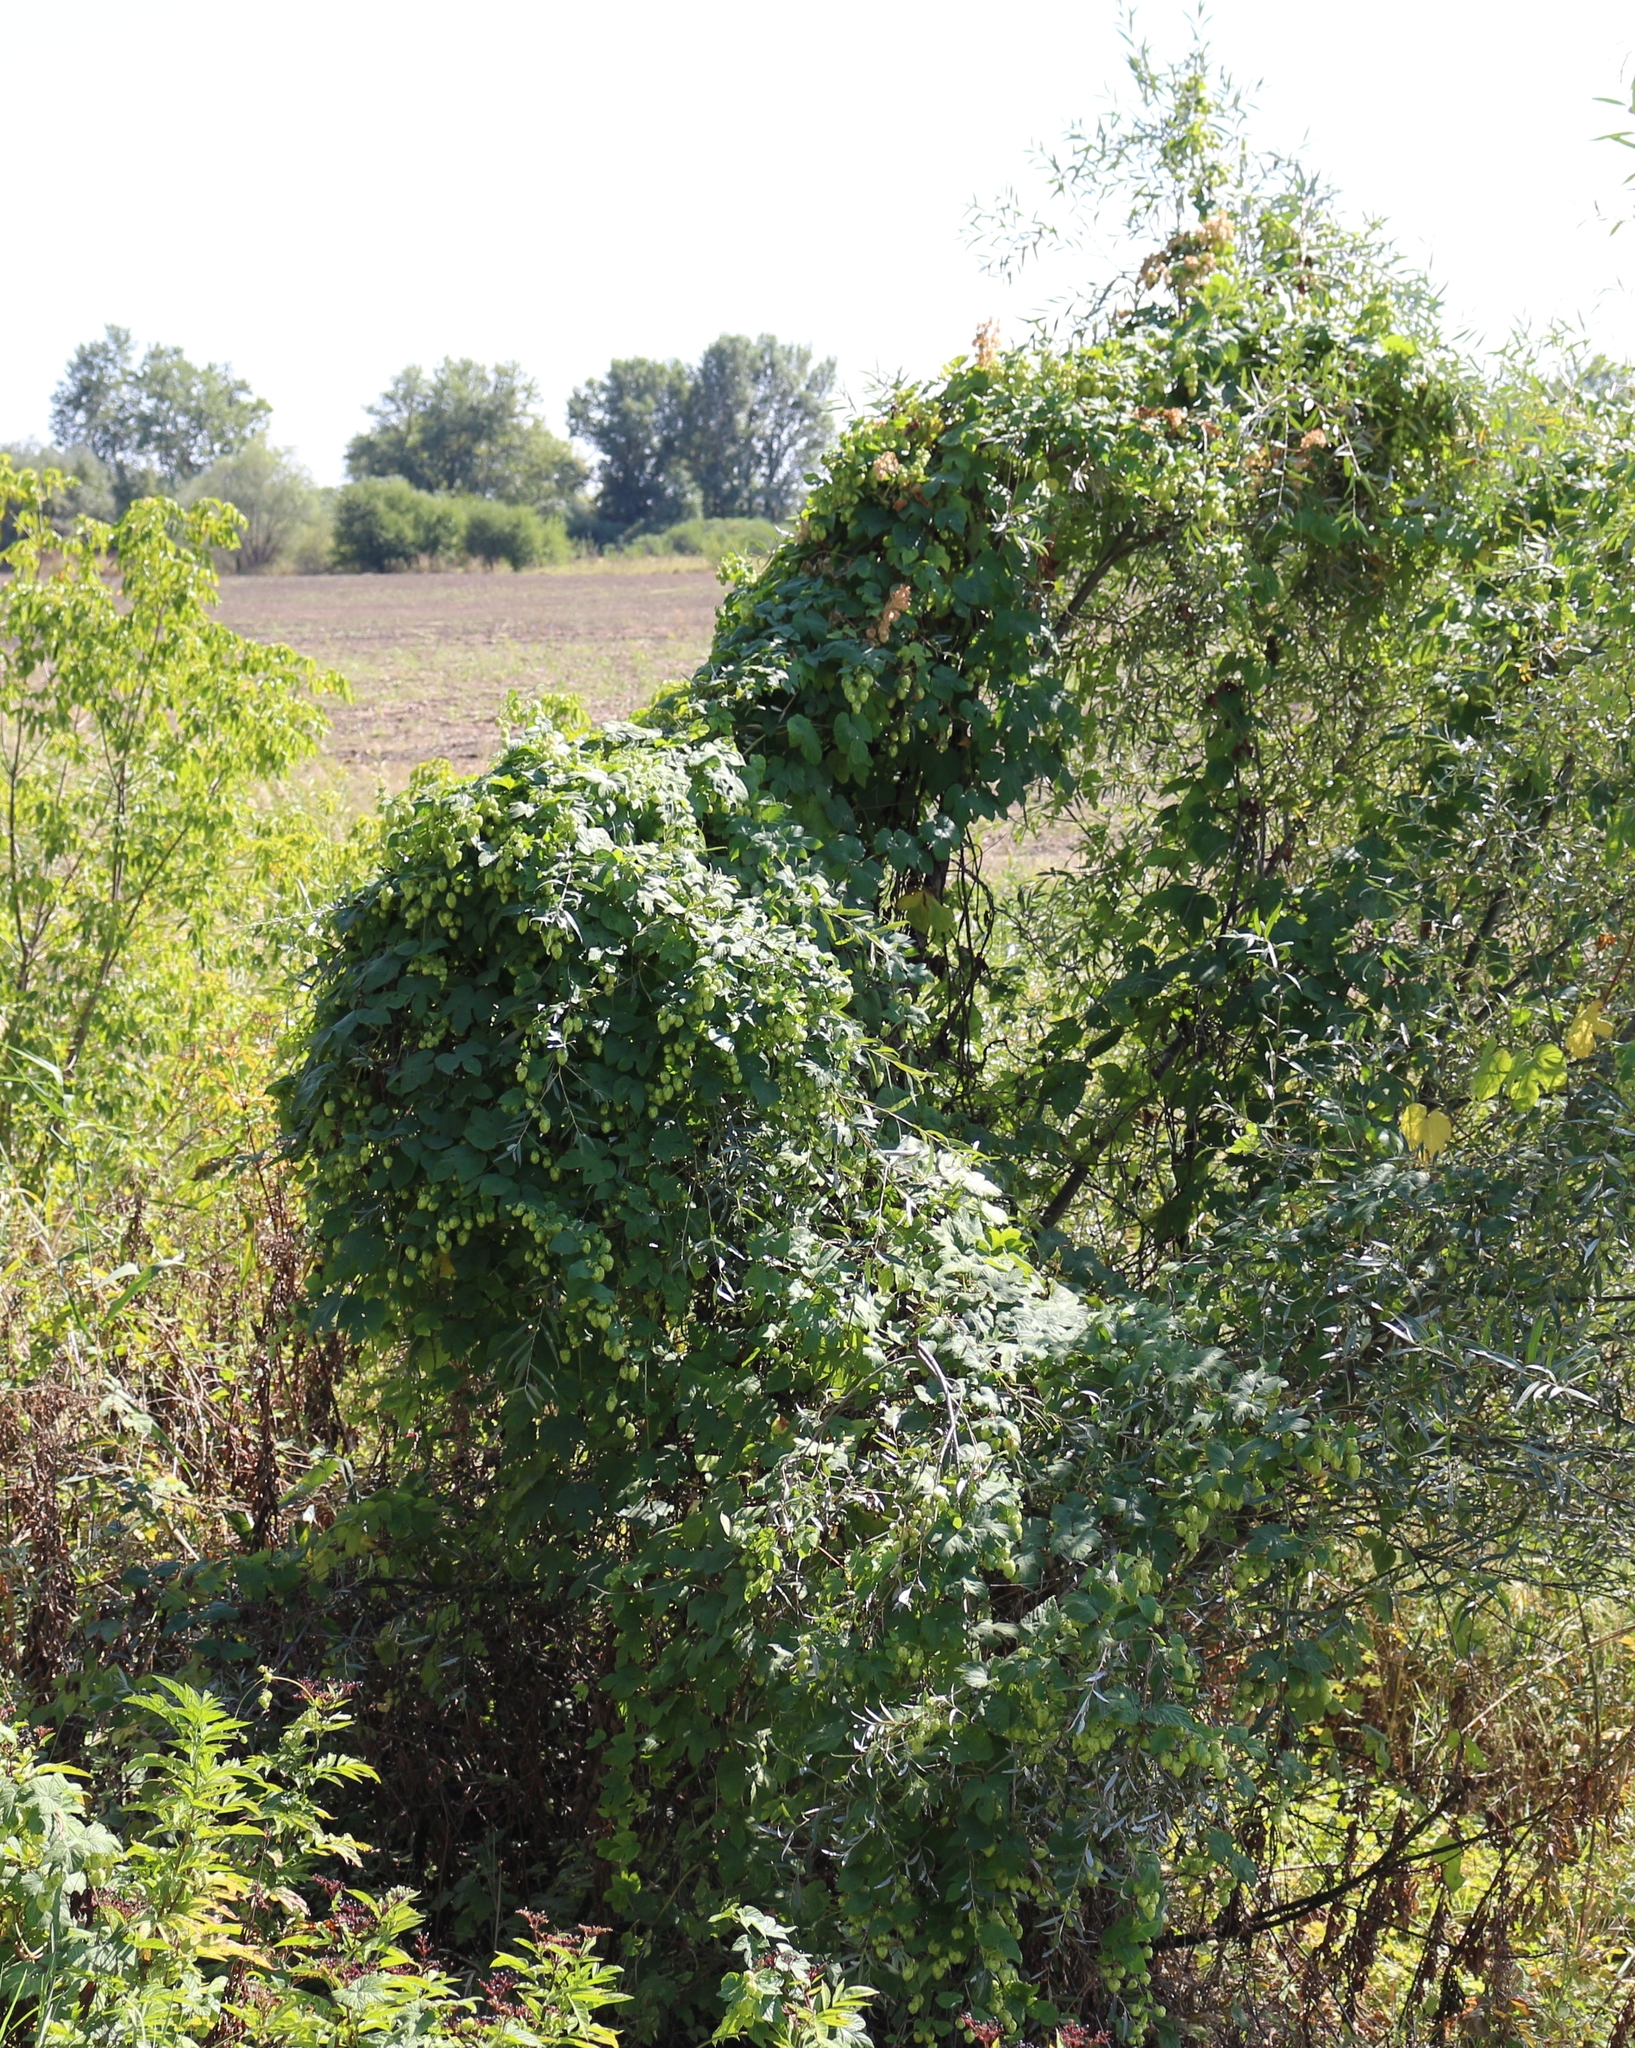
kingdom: Plantae
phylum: Tracheophyta
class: Magnoliopsida
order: Rosales
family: Cannabaceae
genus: Humulus
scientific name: Humulus lupulus
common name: Hop
